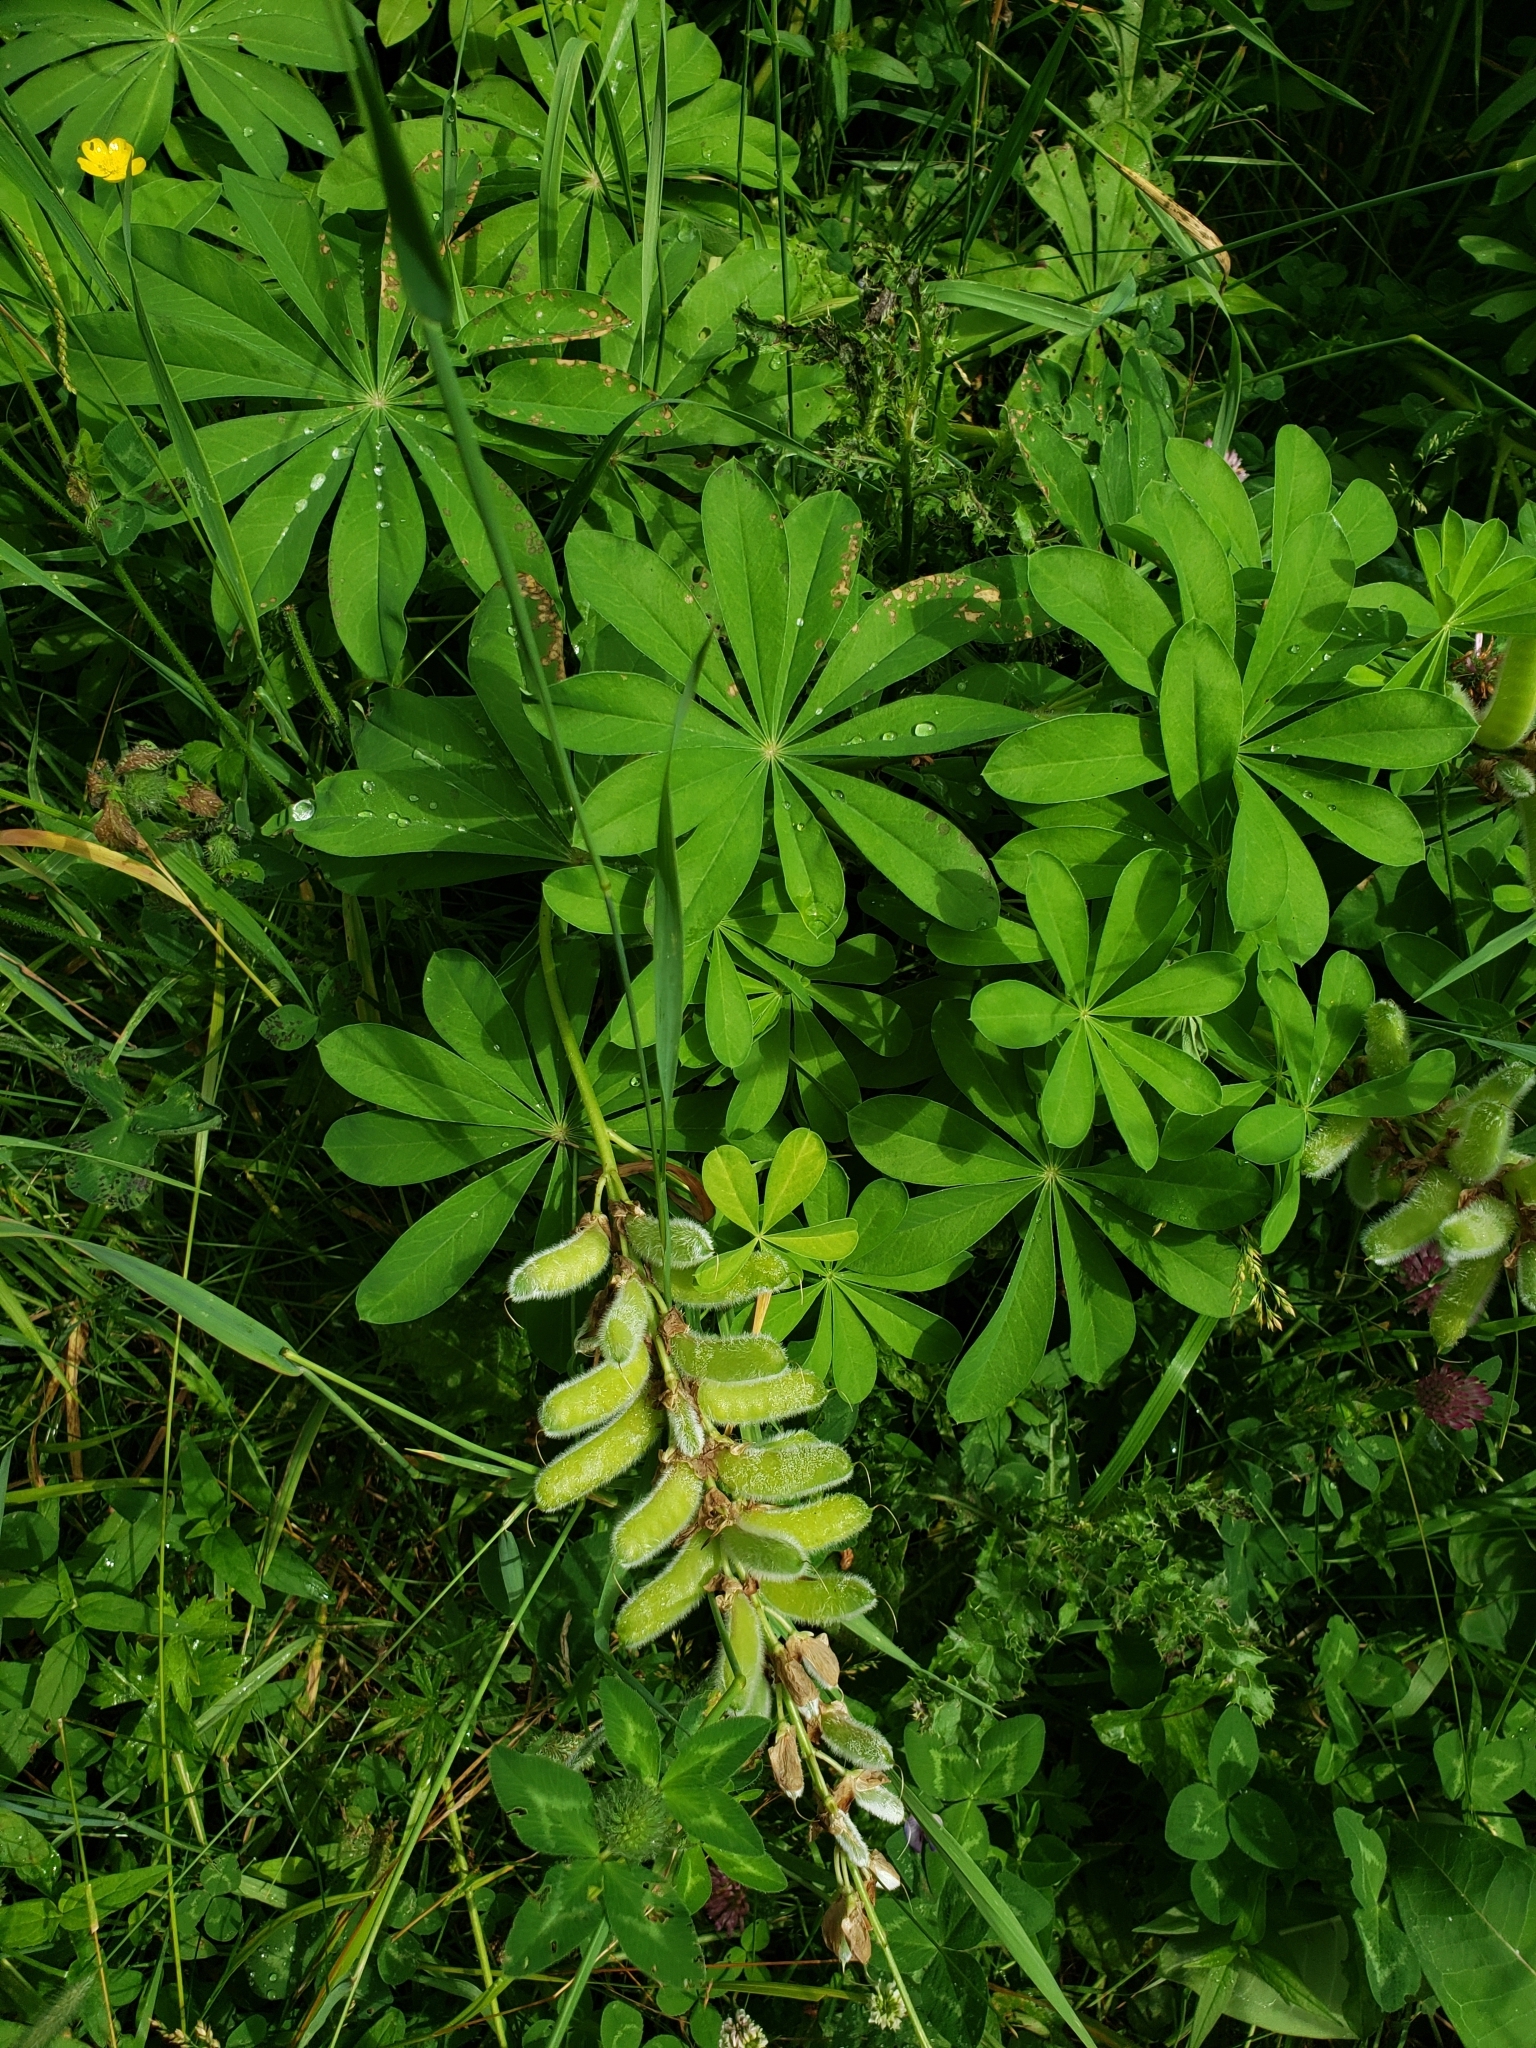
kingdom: Plantae
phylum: Tracheophyta
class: Magnoliopsida
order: Fabales
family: Fabaceae
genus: Lupinus
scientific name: Lupinus polyphyllus
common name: Garden lupin
